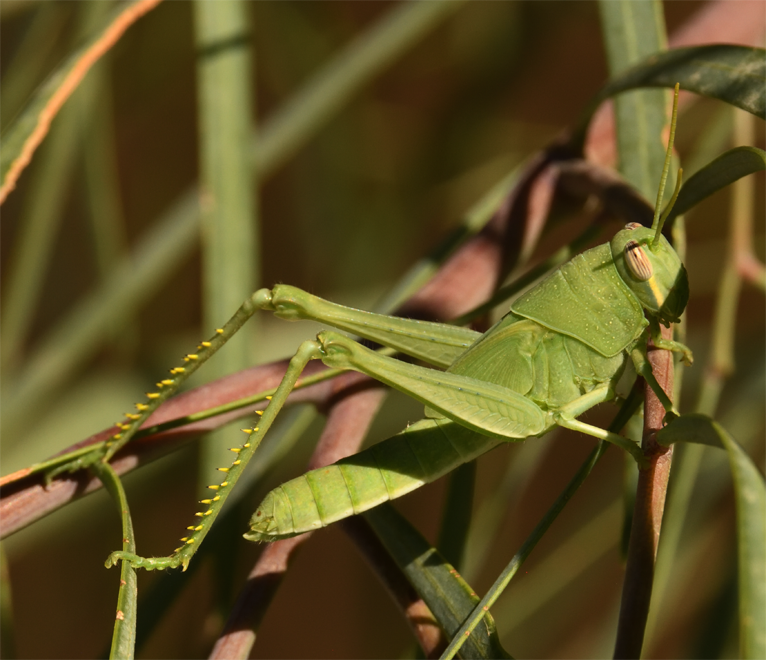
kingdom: Animalia
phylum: Arthropoda
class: Insecta
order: Orthoptera
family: Acrididae
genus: Schistocerca
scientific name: Schistocerca nitens
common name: Vagrant grasshopper
